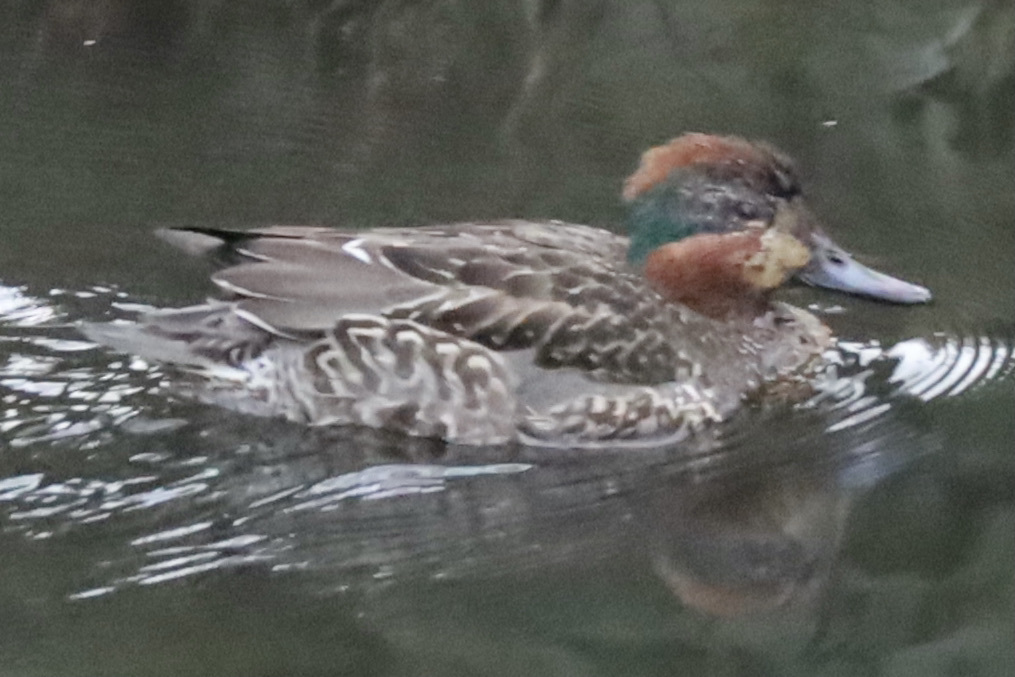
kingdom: Animalia
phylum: Chordata
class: Aves
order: Anseriformes
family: Anatidae
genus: Anas
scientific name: Anas crecca
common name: Eurasian teal
